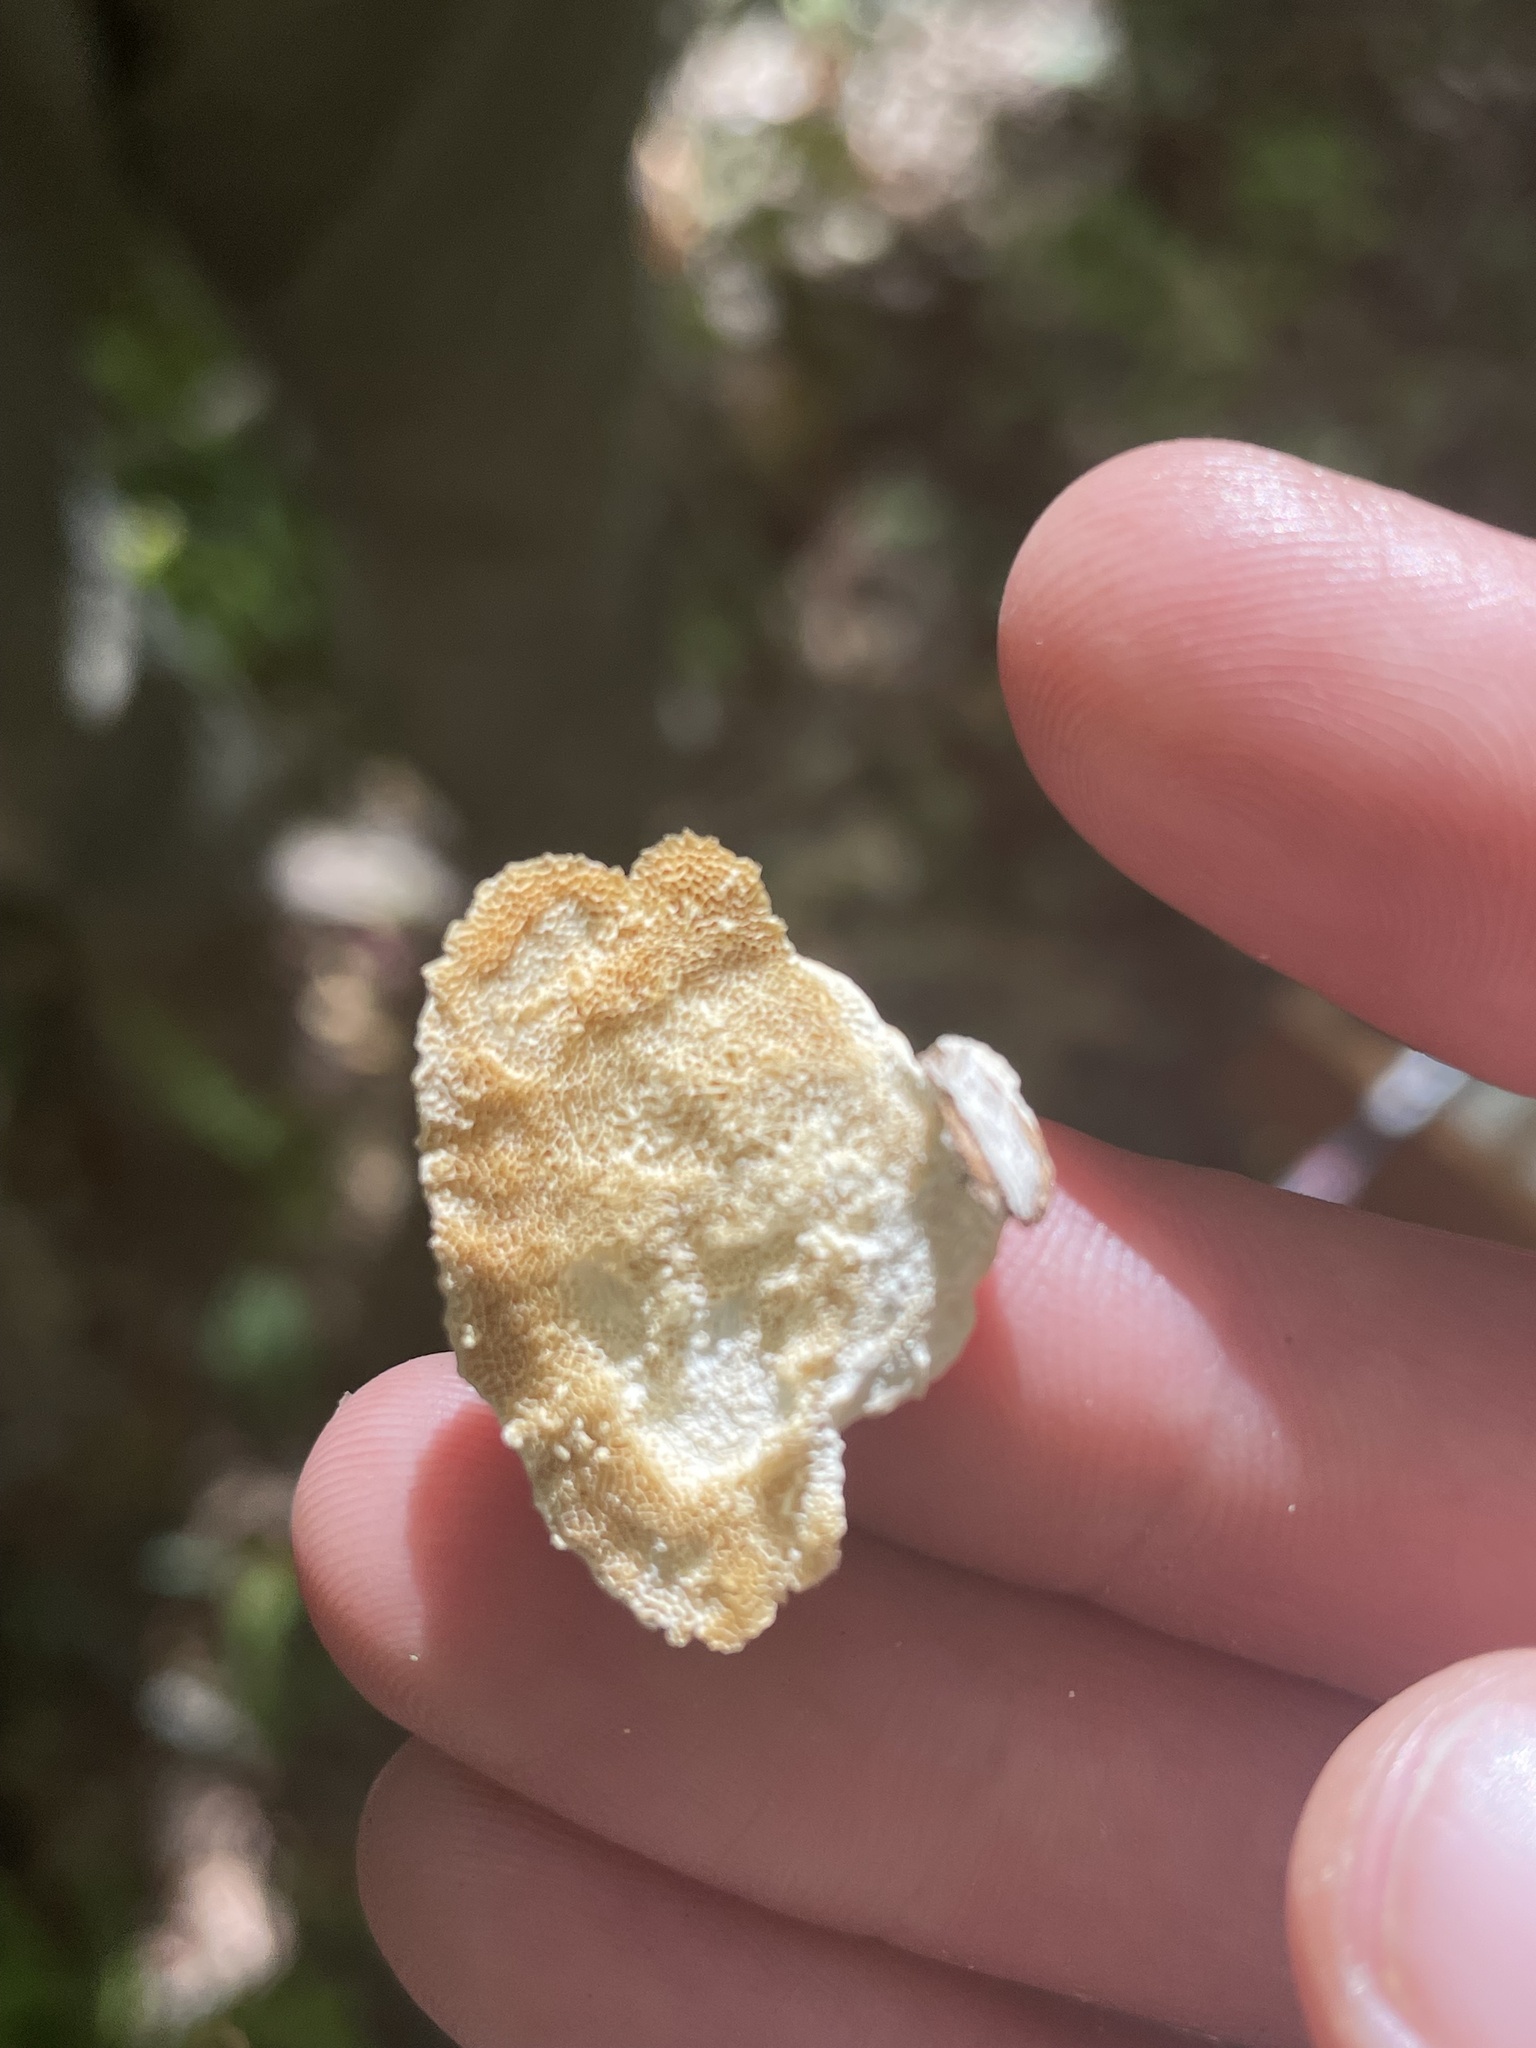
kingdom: Fungi
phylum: Basidiomycota
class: Agaricomycetes
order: Polyporales
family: Polyporaceae
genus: Poronidulus
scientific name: Poronidulus conchifer
